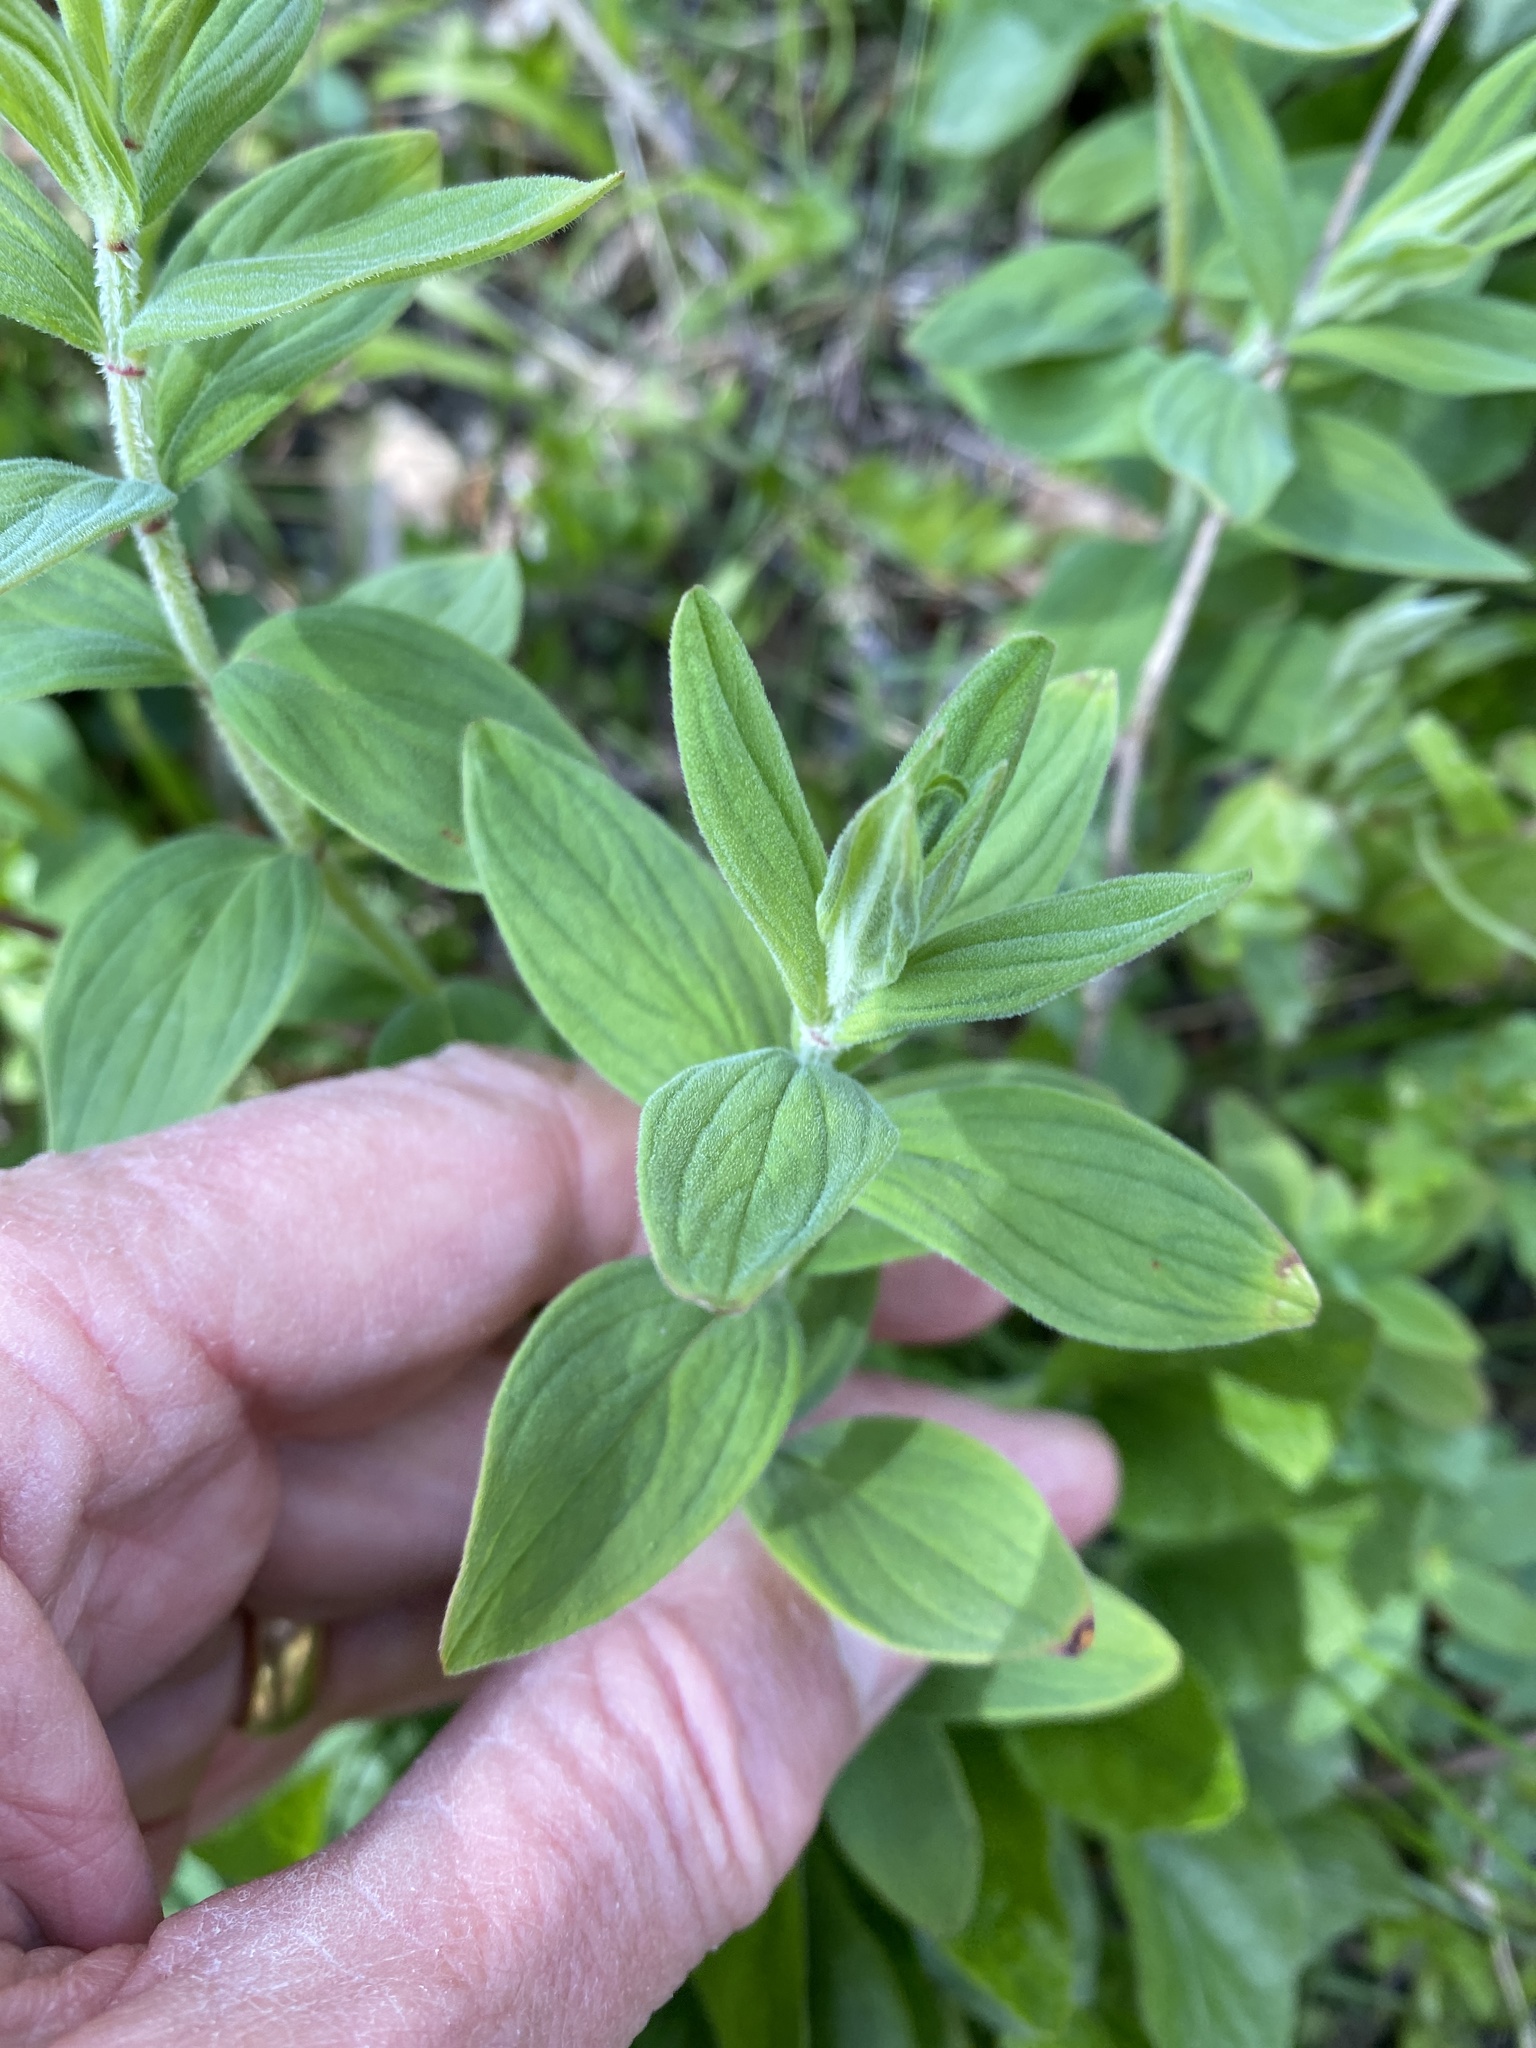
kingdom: Plantae
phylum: Tracheophyta
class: Magnoliopsida
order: Malpighiales
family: Hypericaceae
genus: Hypericum
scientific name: Hypericum hirsutum
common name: Hairy st. john's-wort
